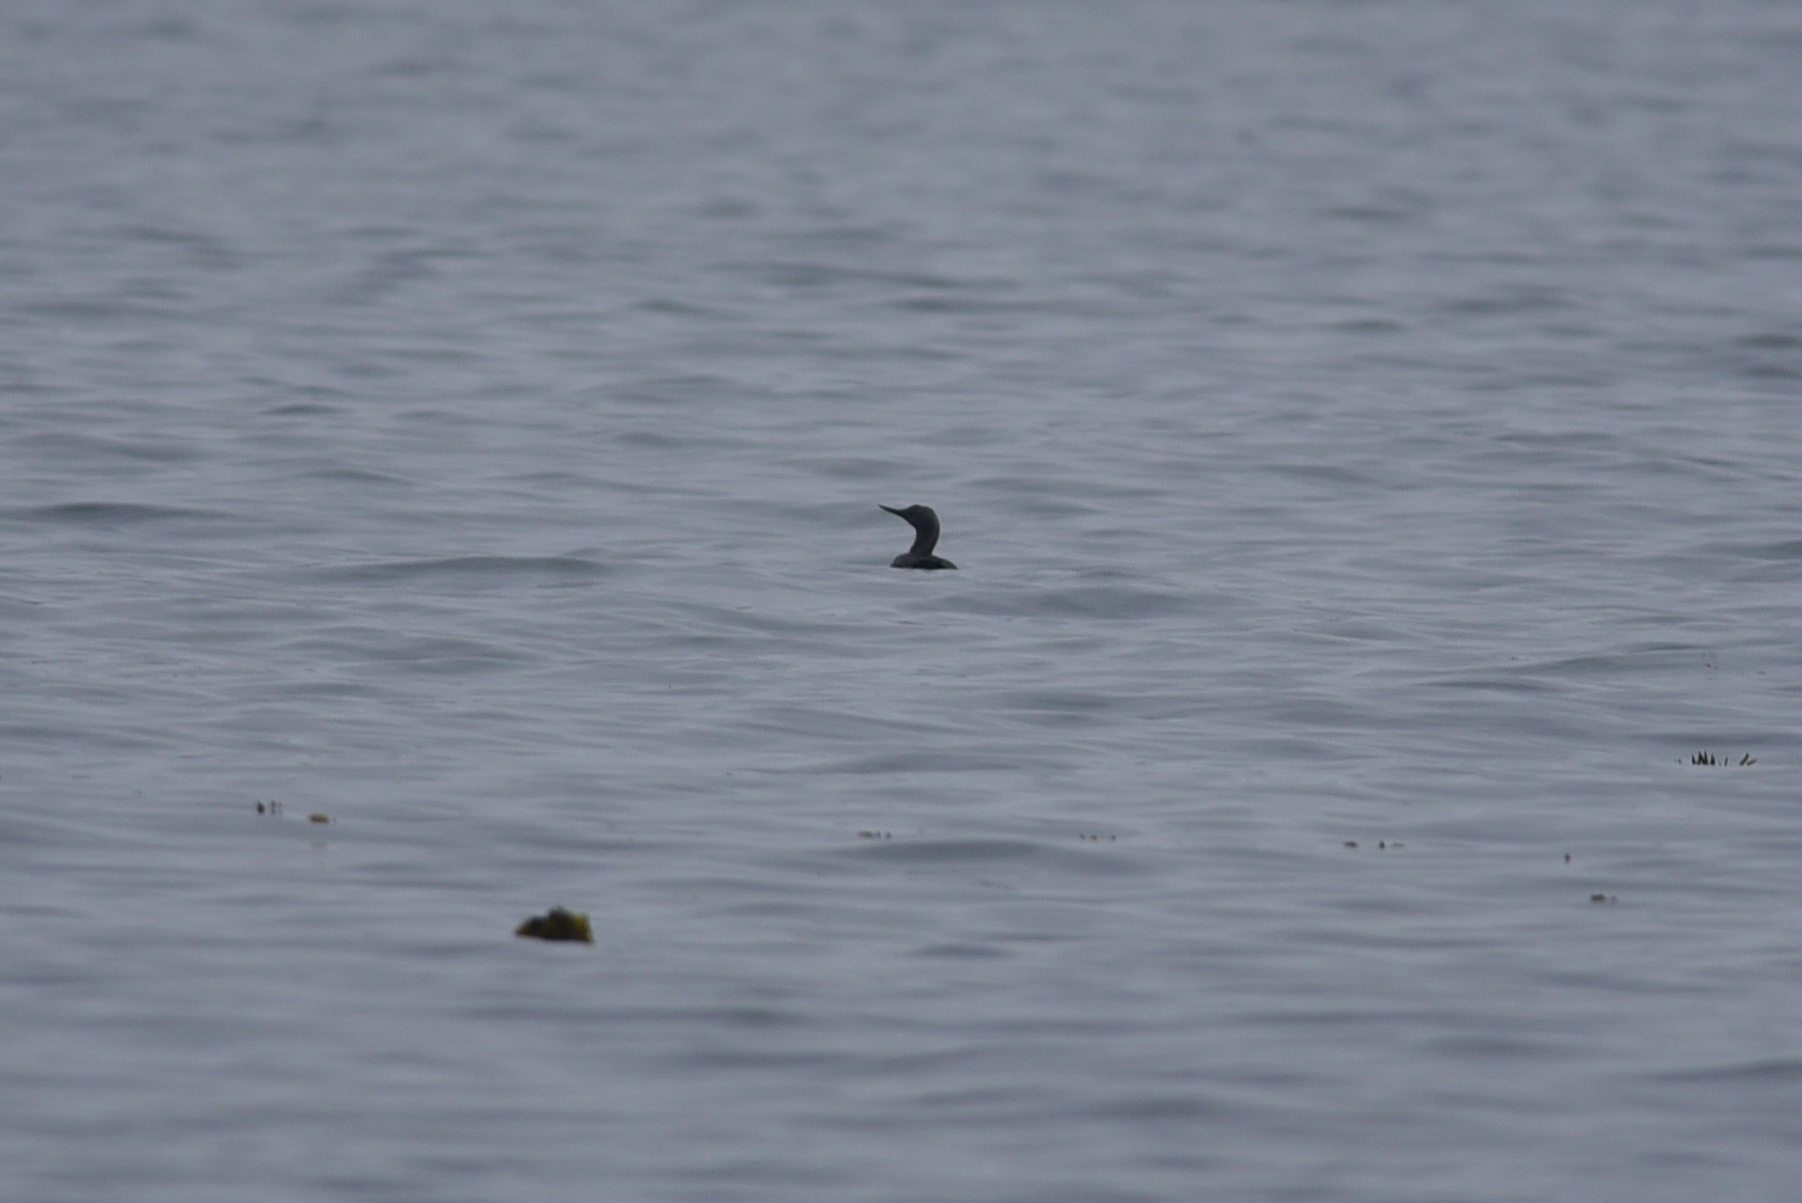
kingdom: Animalia
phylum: Chordata
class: Aves
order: Gaviiformes
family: Gaviidae
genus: Gavia
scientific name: Gavia stellata
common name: Red-throated loon
